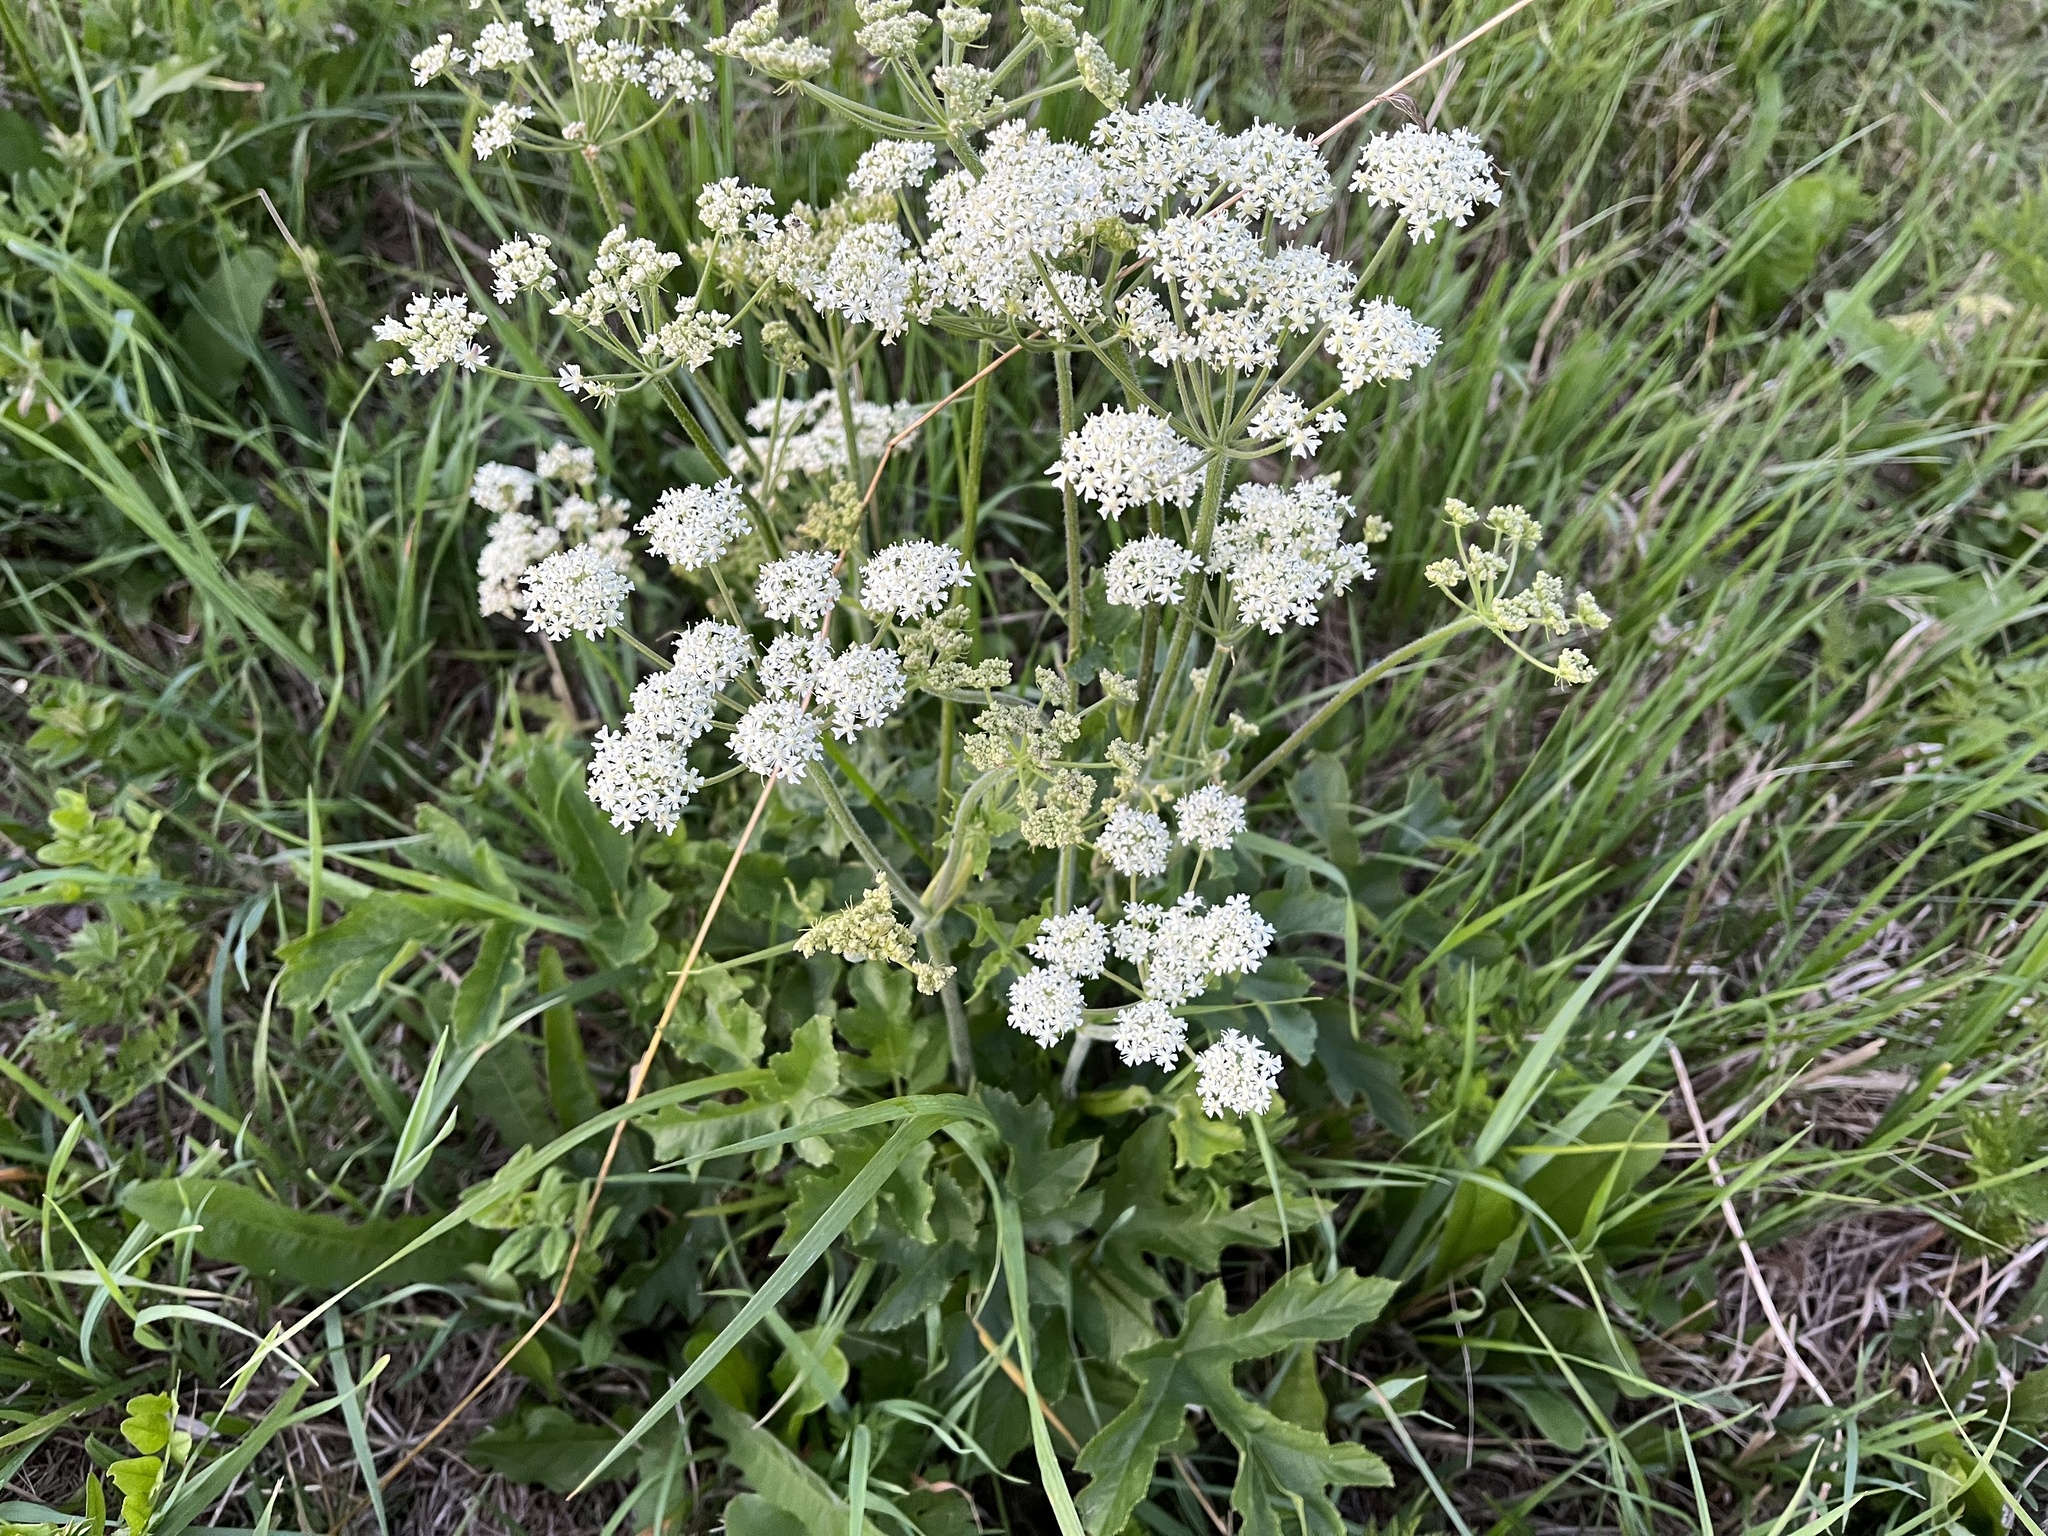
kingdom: Plantae
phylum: Tracheophyta
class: Magnoliopsida
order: Apiales
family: Apiaceae
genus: Heracleum
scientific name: Heracleum sphondylium
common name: Hogweed
